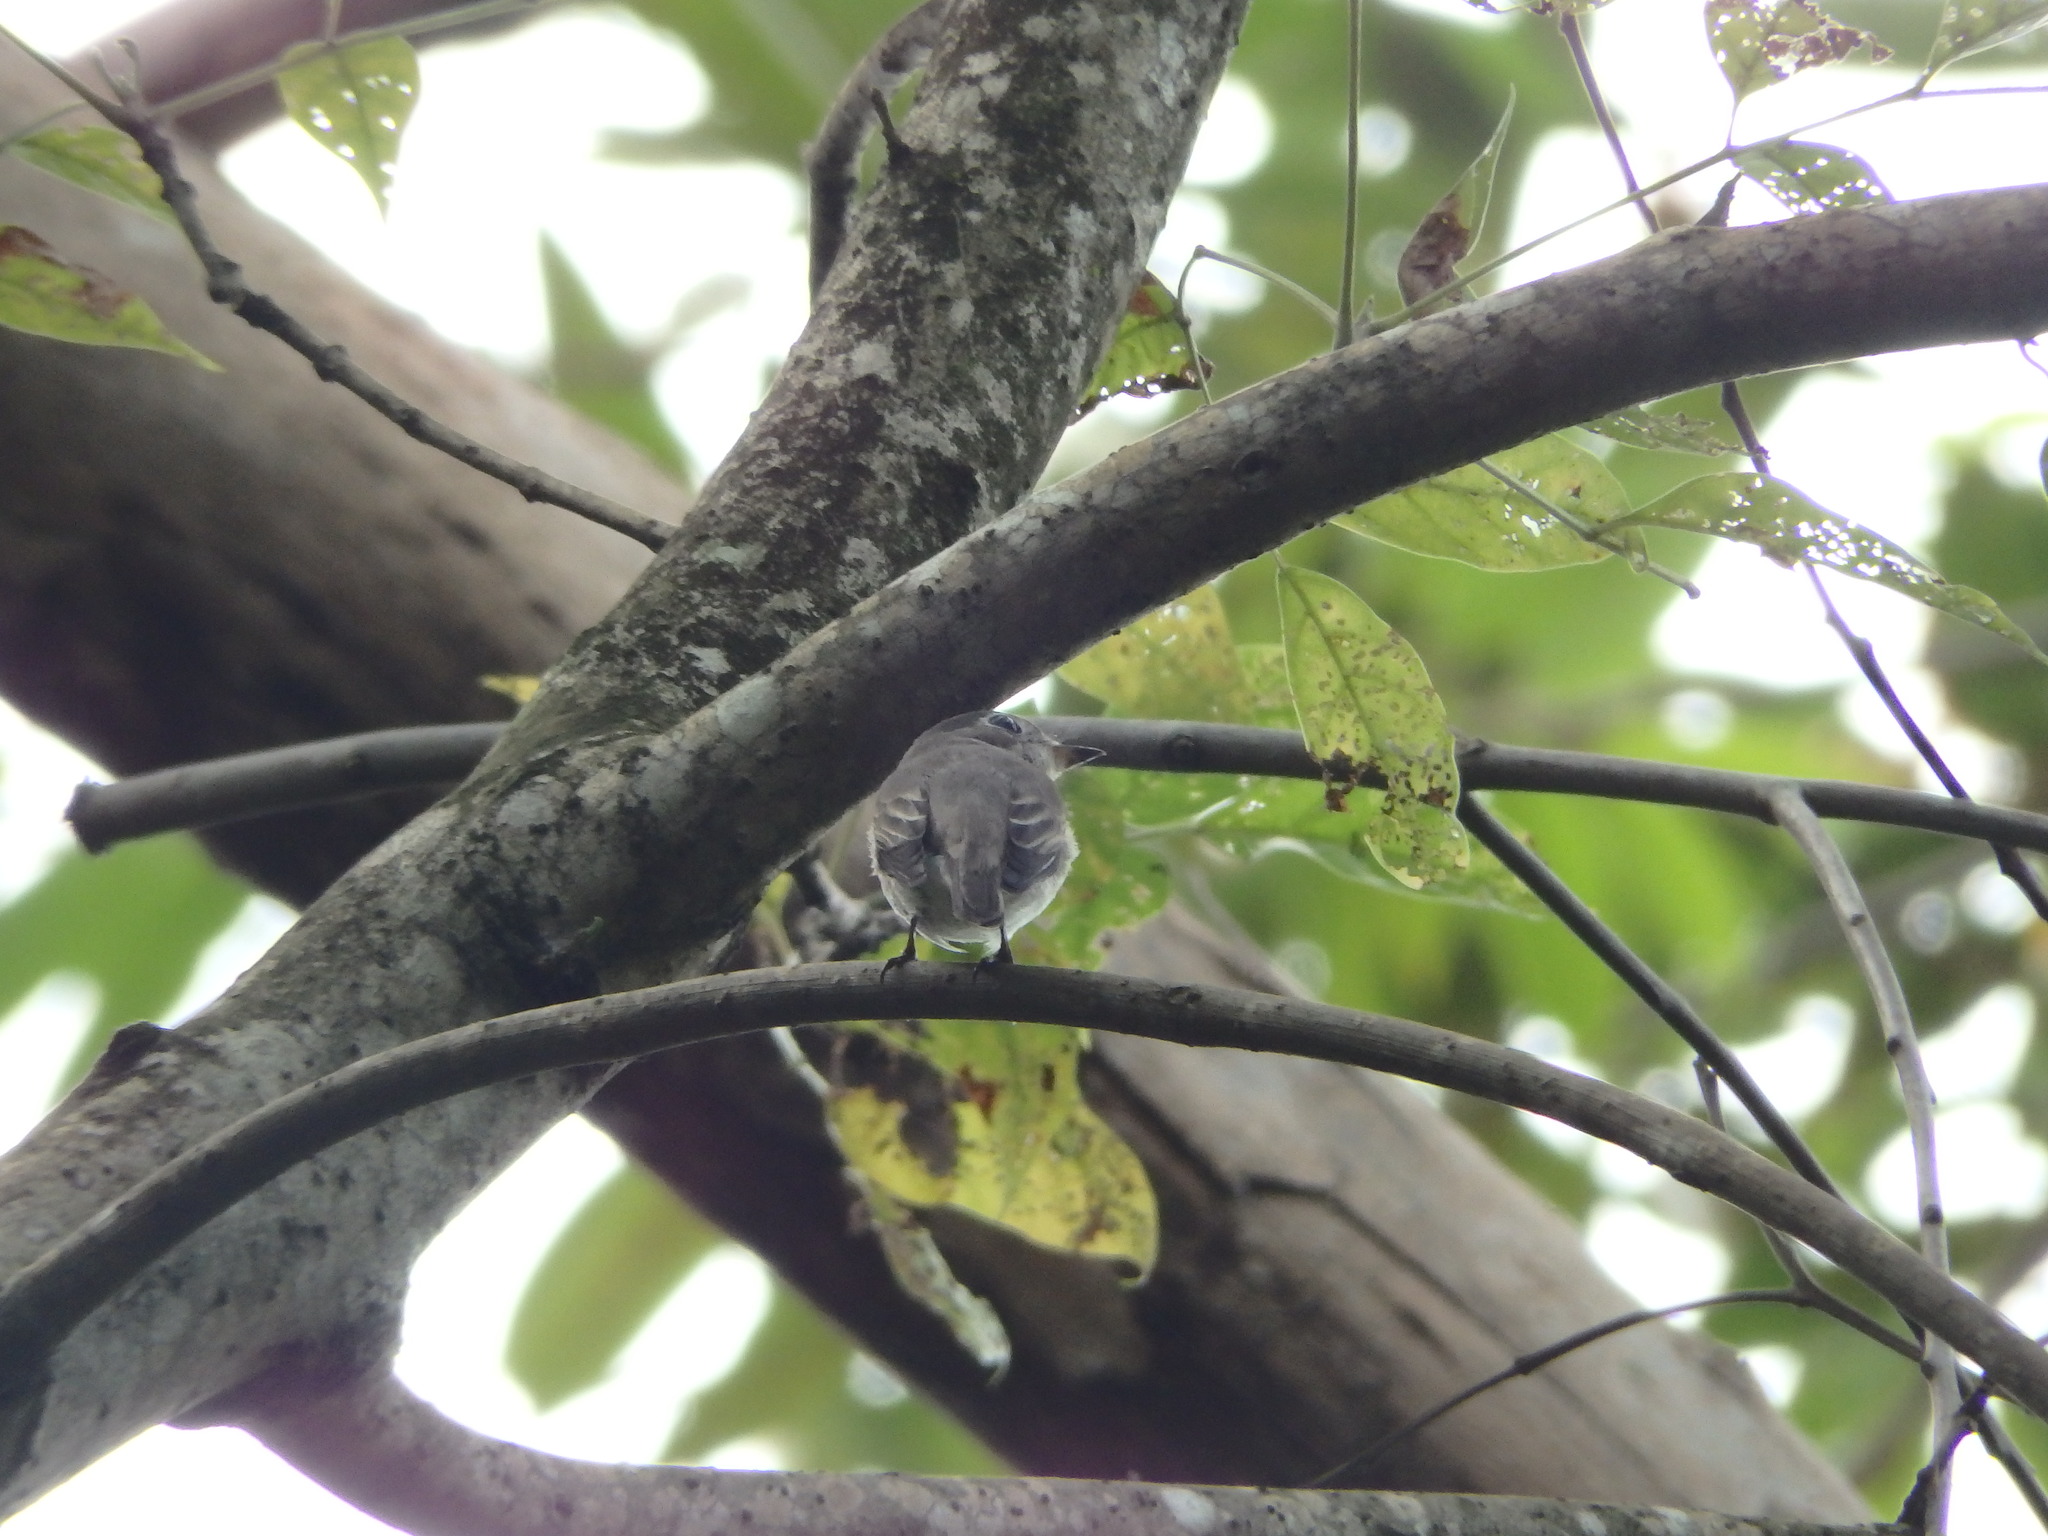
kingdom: Animalia
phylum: Chordata
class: Aves
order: Passeriformes
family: Muscicapidae
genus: Muscicapa
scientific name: Muscicapa latirostris
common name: Asian brown flycatcher
